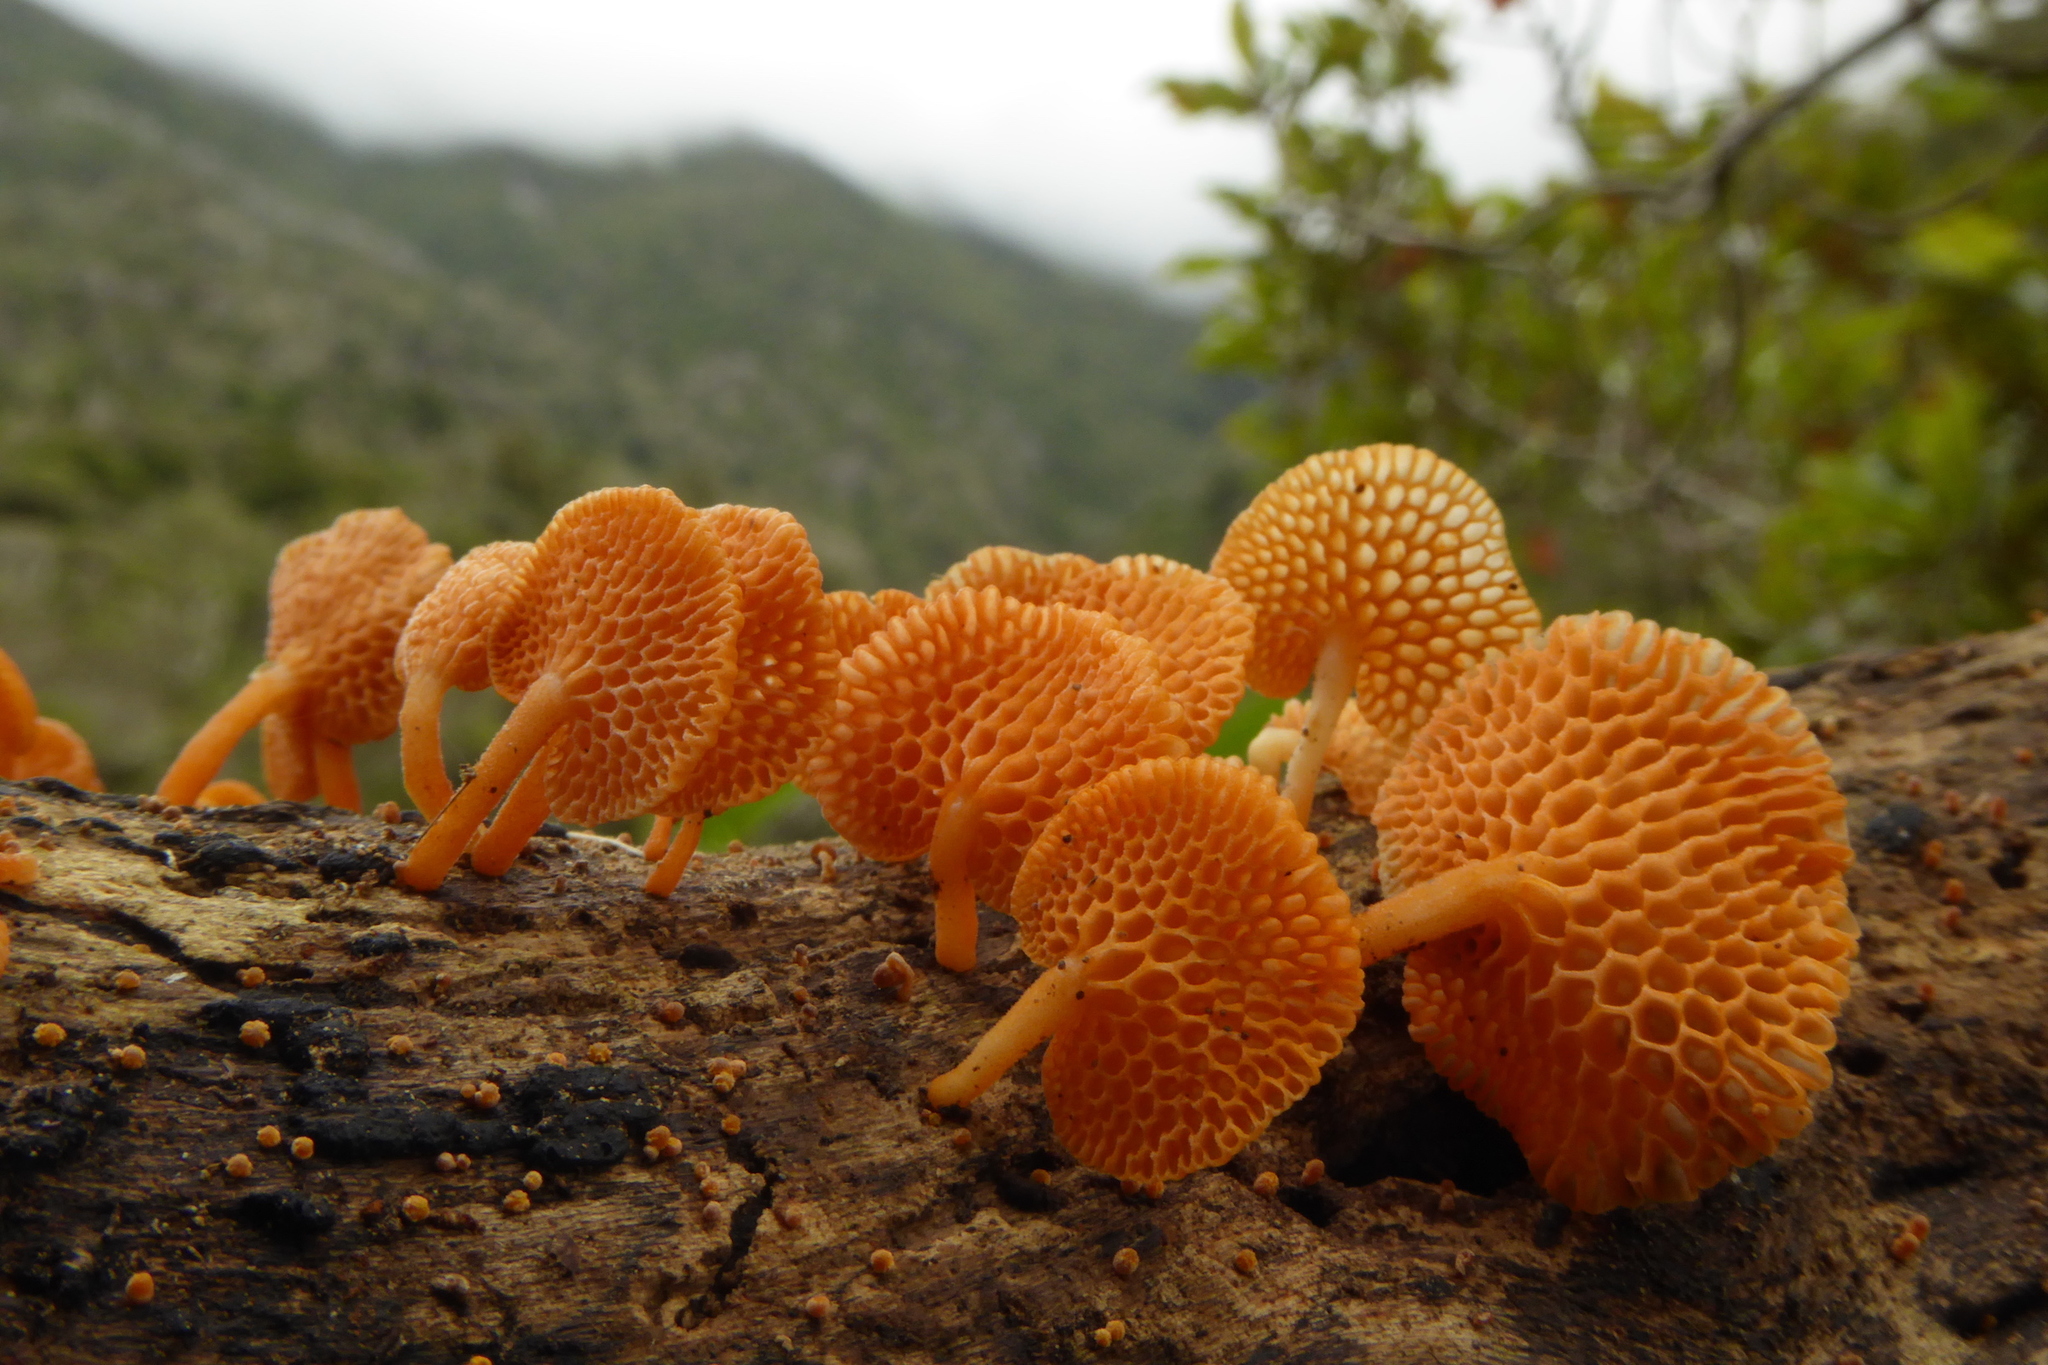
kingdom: Fungi
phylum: Basidiomycota
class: Agaricomycetes
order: Agaricales
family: Mycenaceae
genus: Favolaschia
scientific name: Favolaschia claudopus
